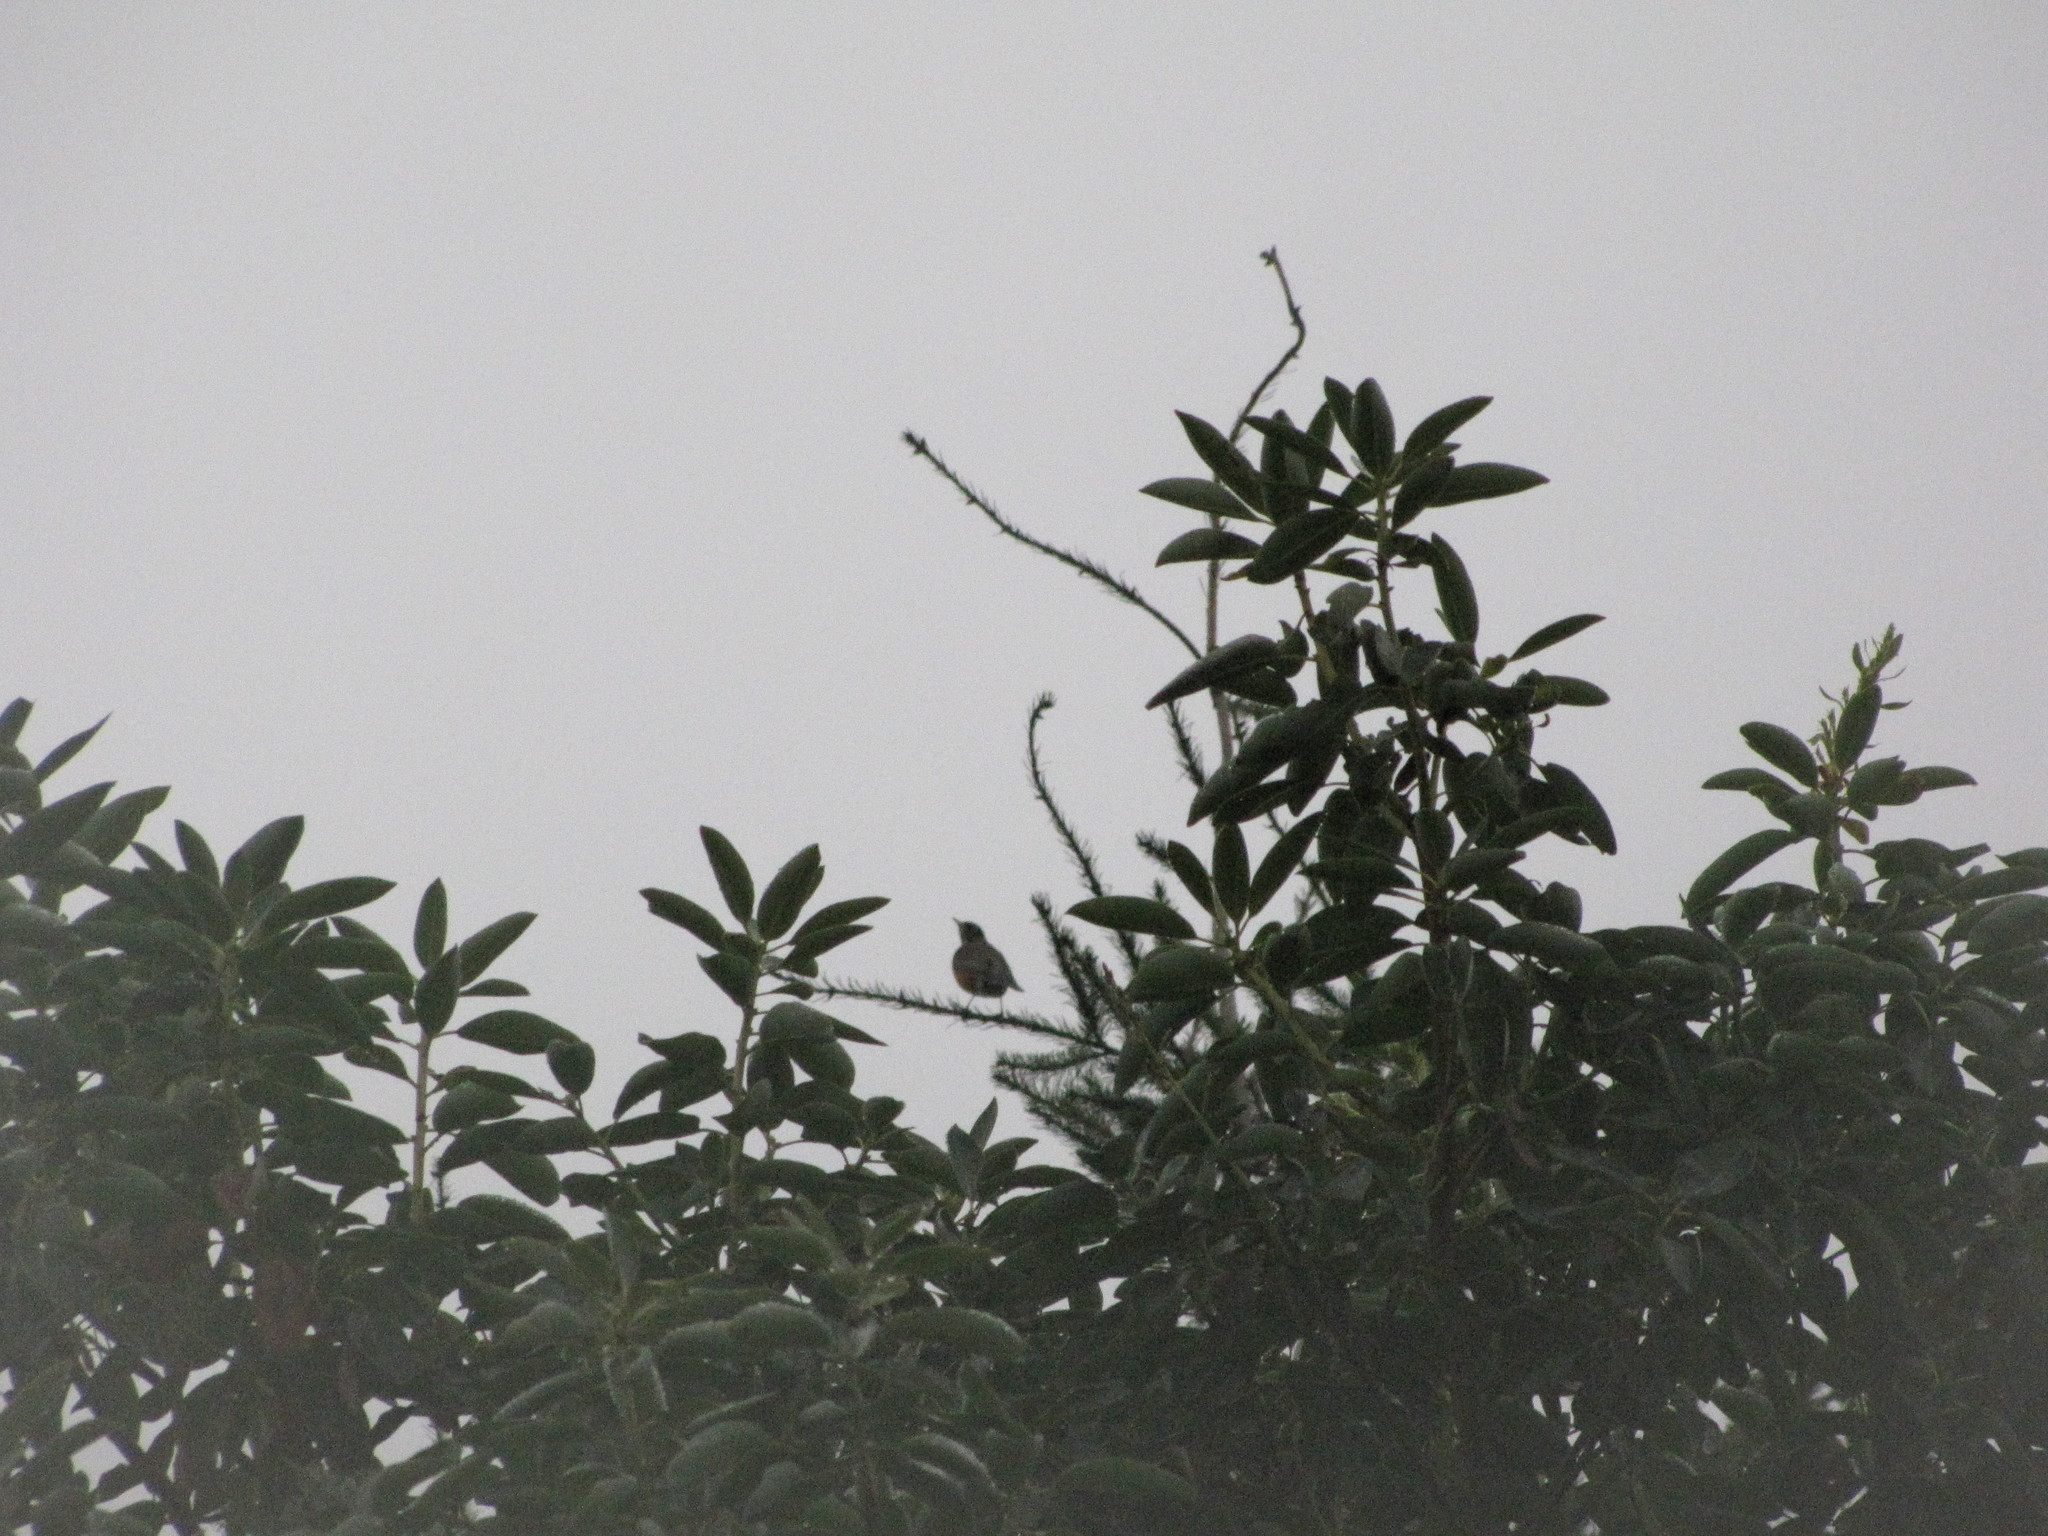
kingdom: Animalia
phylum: Chordata
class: Aves
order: Passeriformes
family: Turdidae
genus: Turdus
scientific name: Turdus migratorius
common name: American robin
